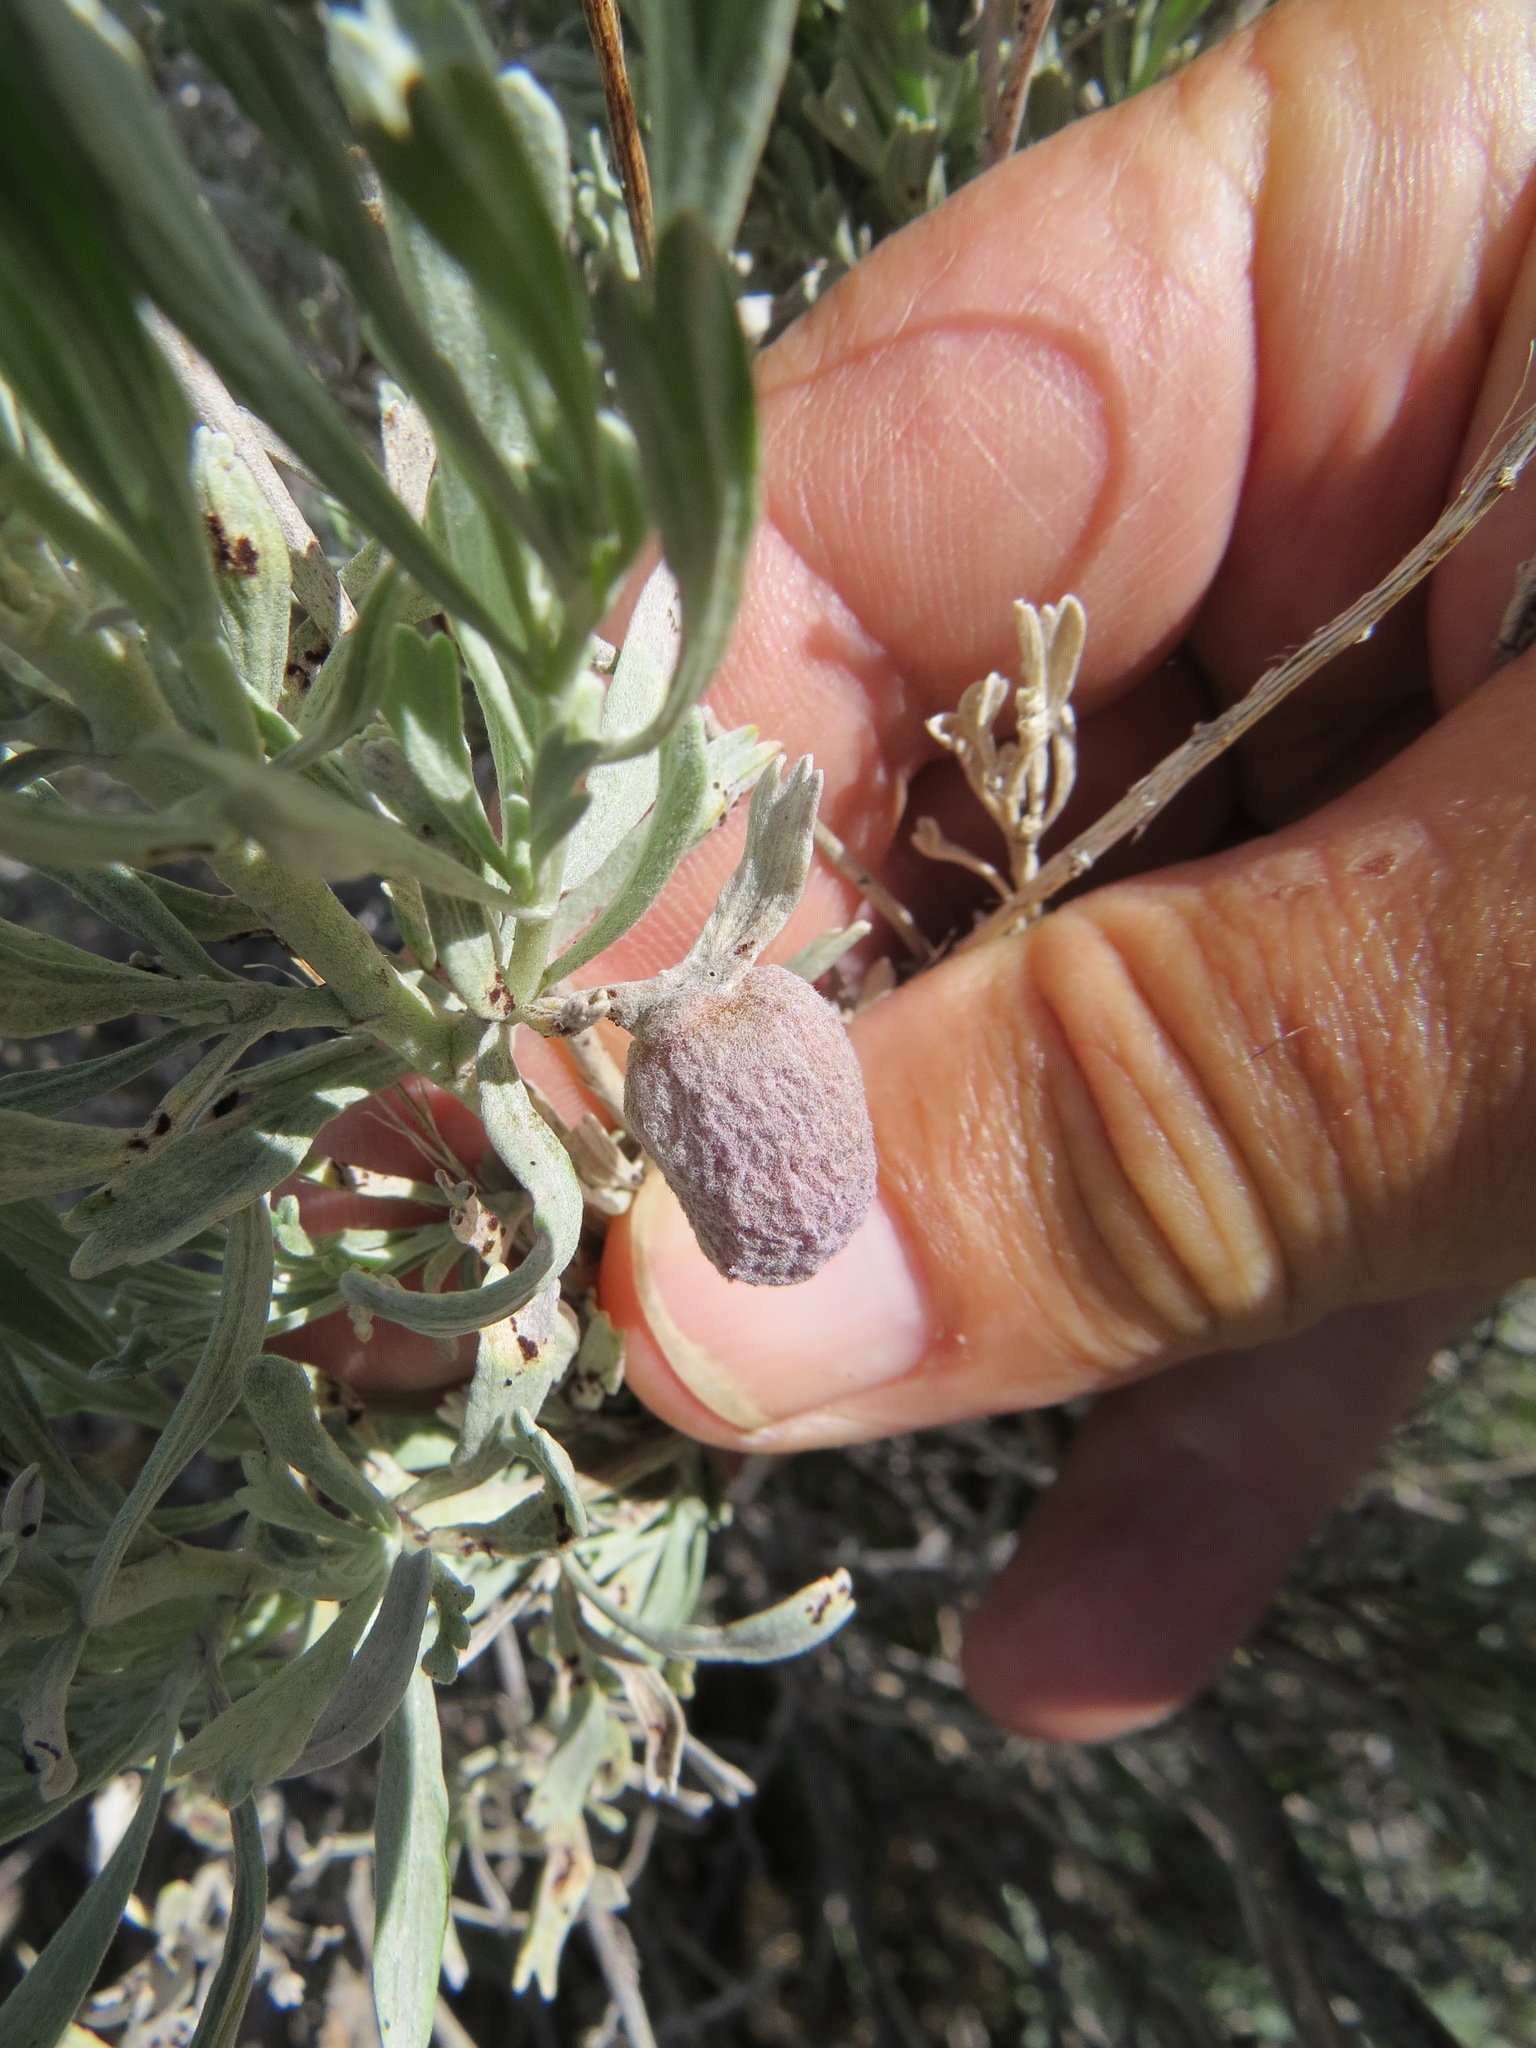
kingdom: Animalia
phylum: Arthropoda
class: Insecta
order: Diptera
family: Cecidomyiidae
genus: Rhopalomyia
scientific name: Rhopalomyia pomum
